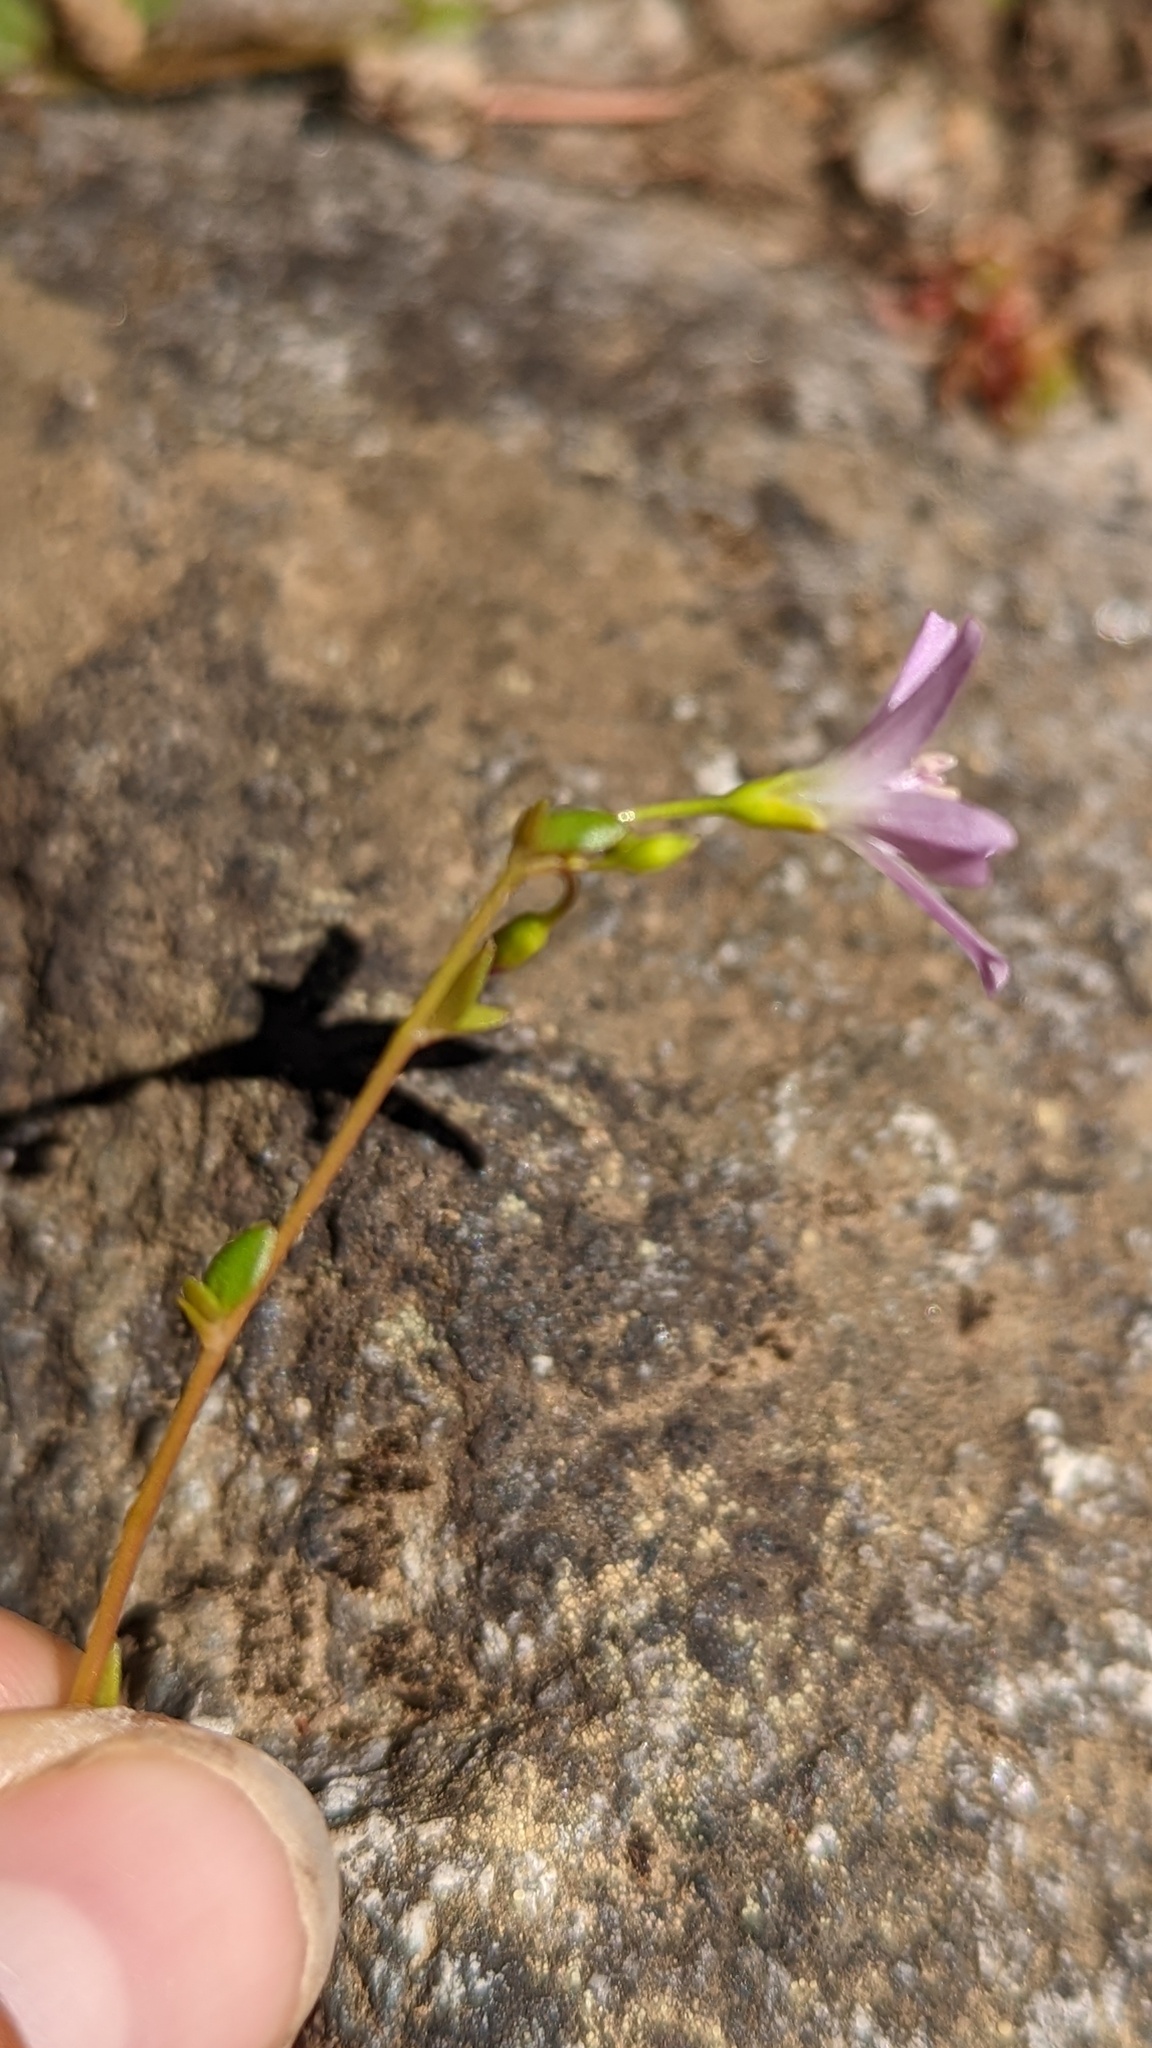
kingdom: Plantae
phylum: Tracheophyta
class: Magnoliopsida
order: Caryophyllales
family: Montiaceae
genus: Montia
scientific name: Montia parvifolia
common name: Small-leaved blinks
